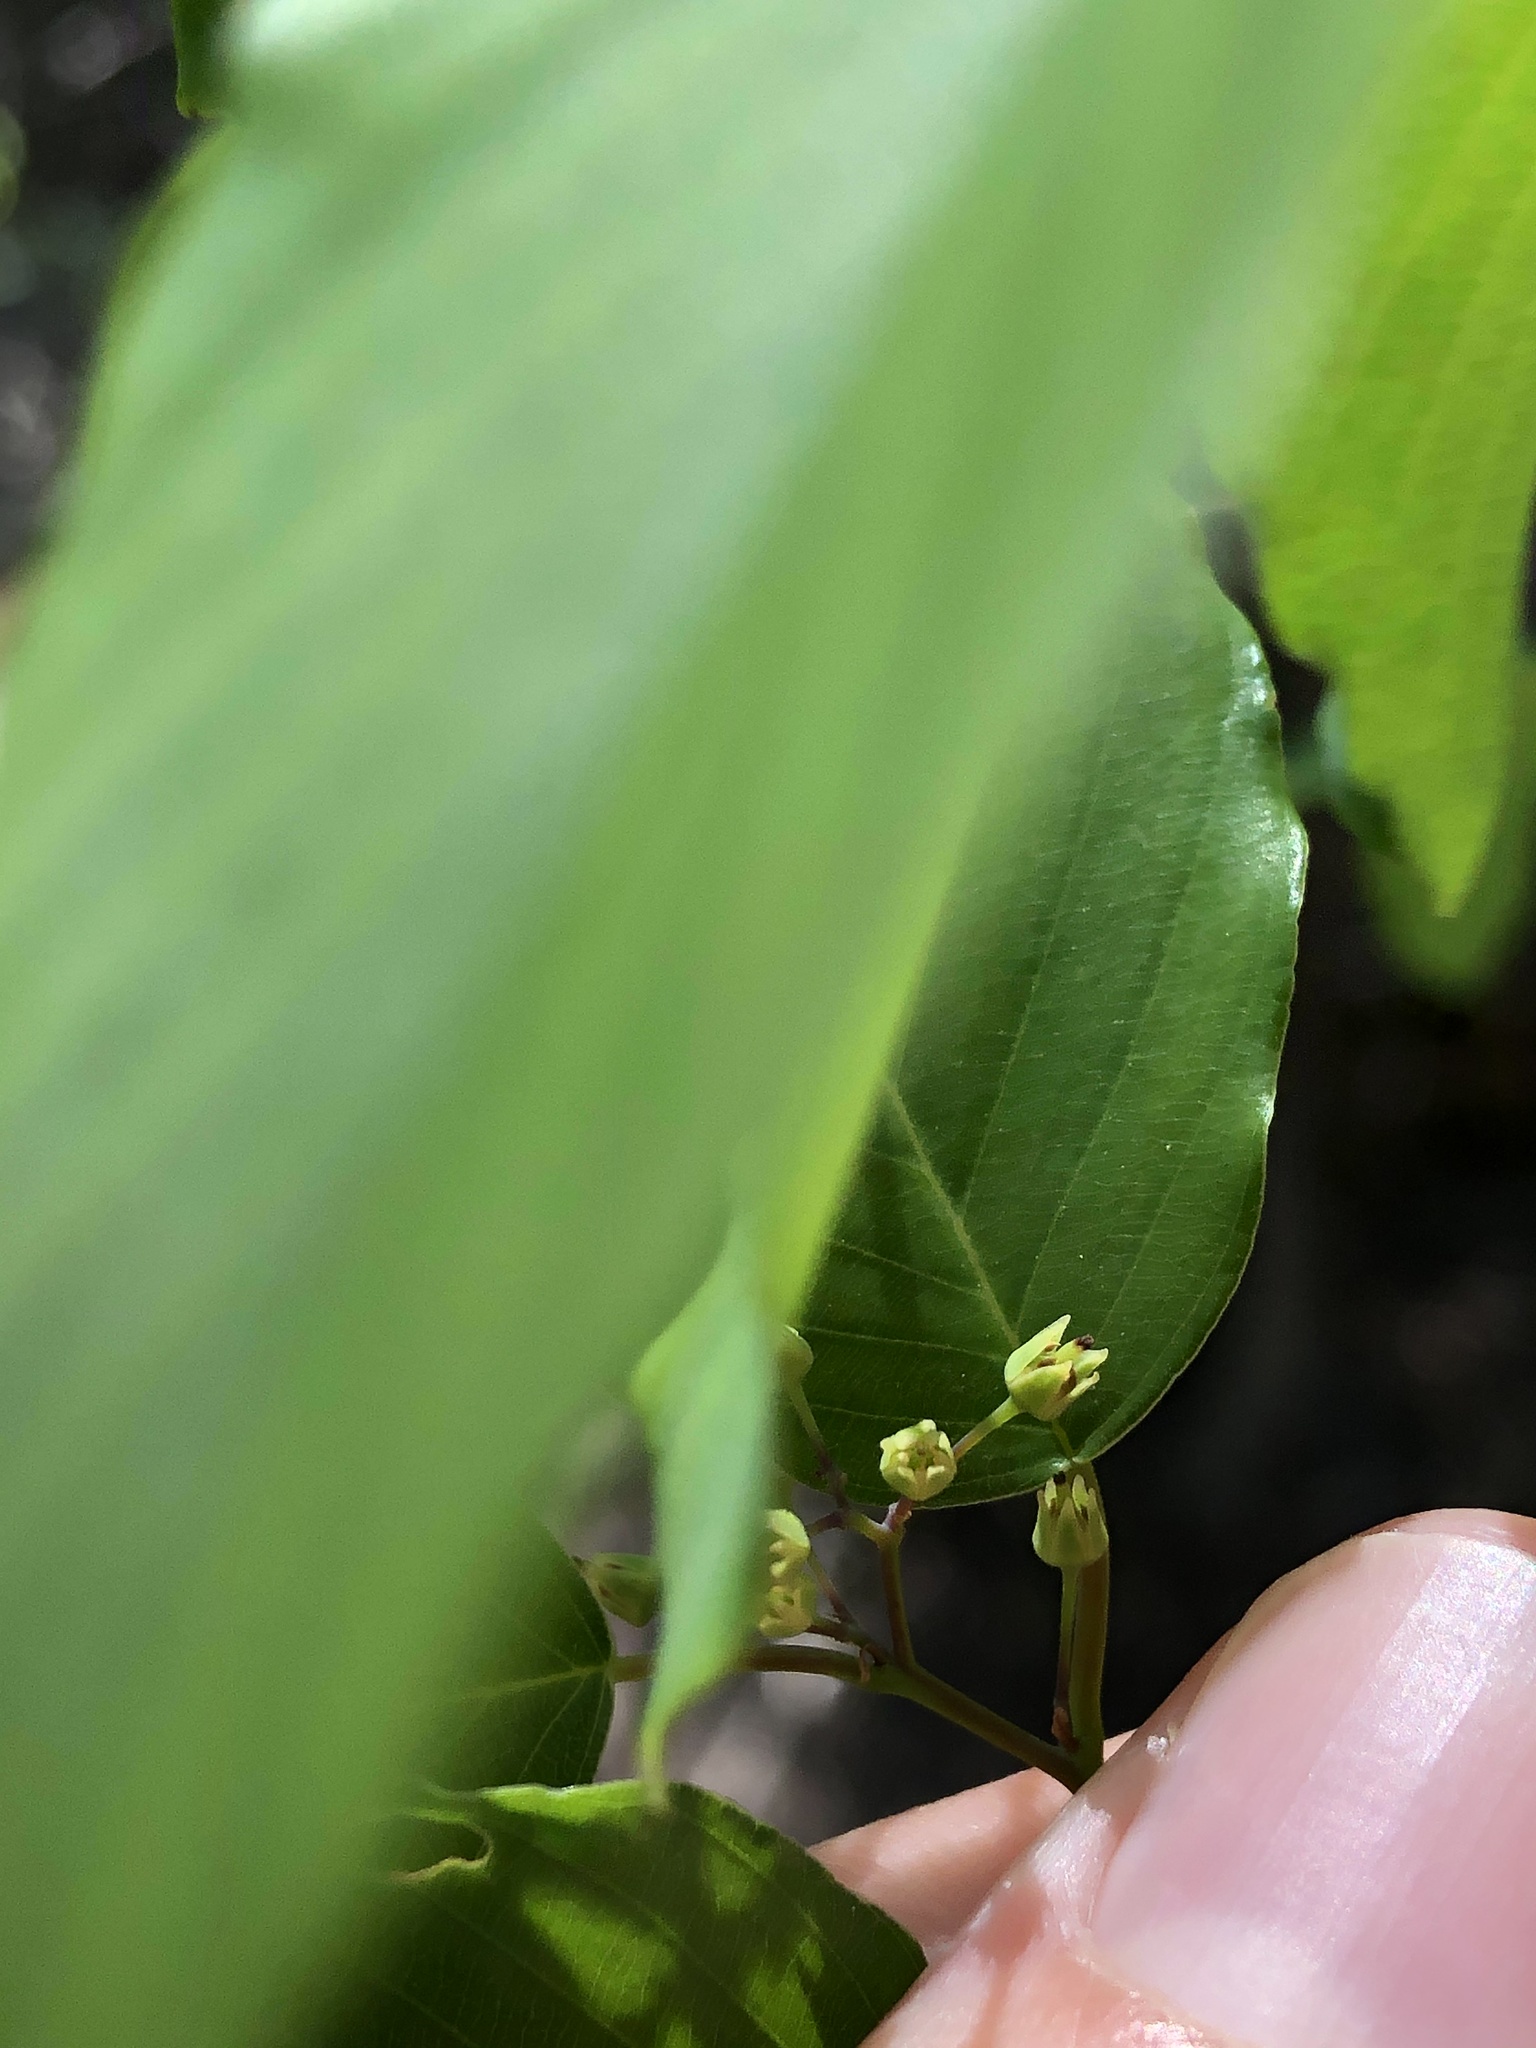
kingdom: Plantae
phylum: Tracheophyta
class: Magnoliopsida
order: Rosales
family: Rhamnaceae
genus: Berchemia
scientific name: Berchemia scandens
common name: Supplejack
